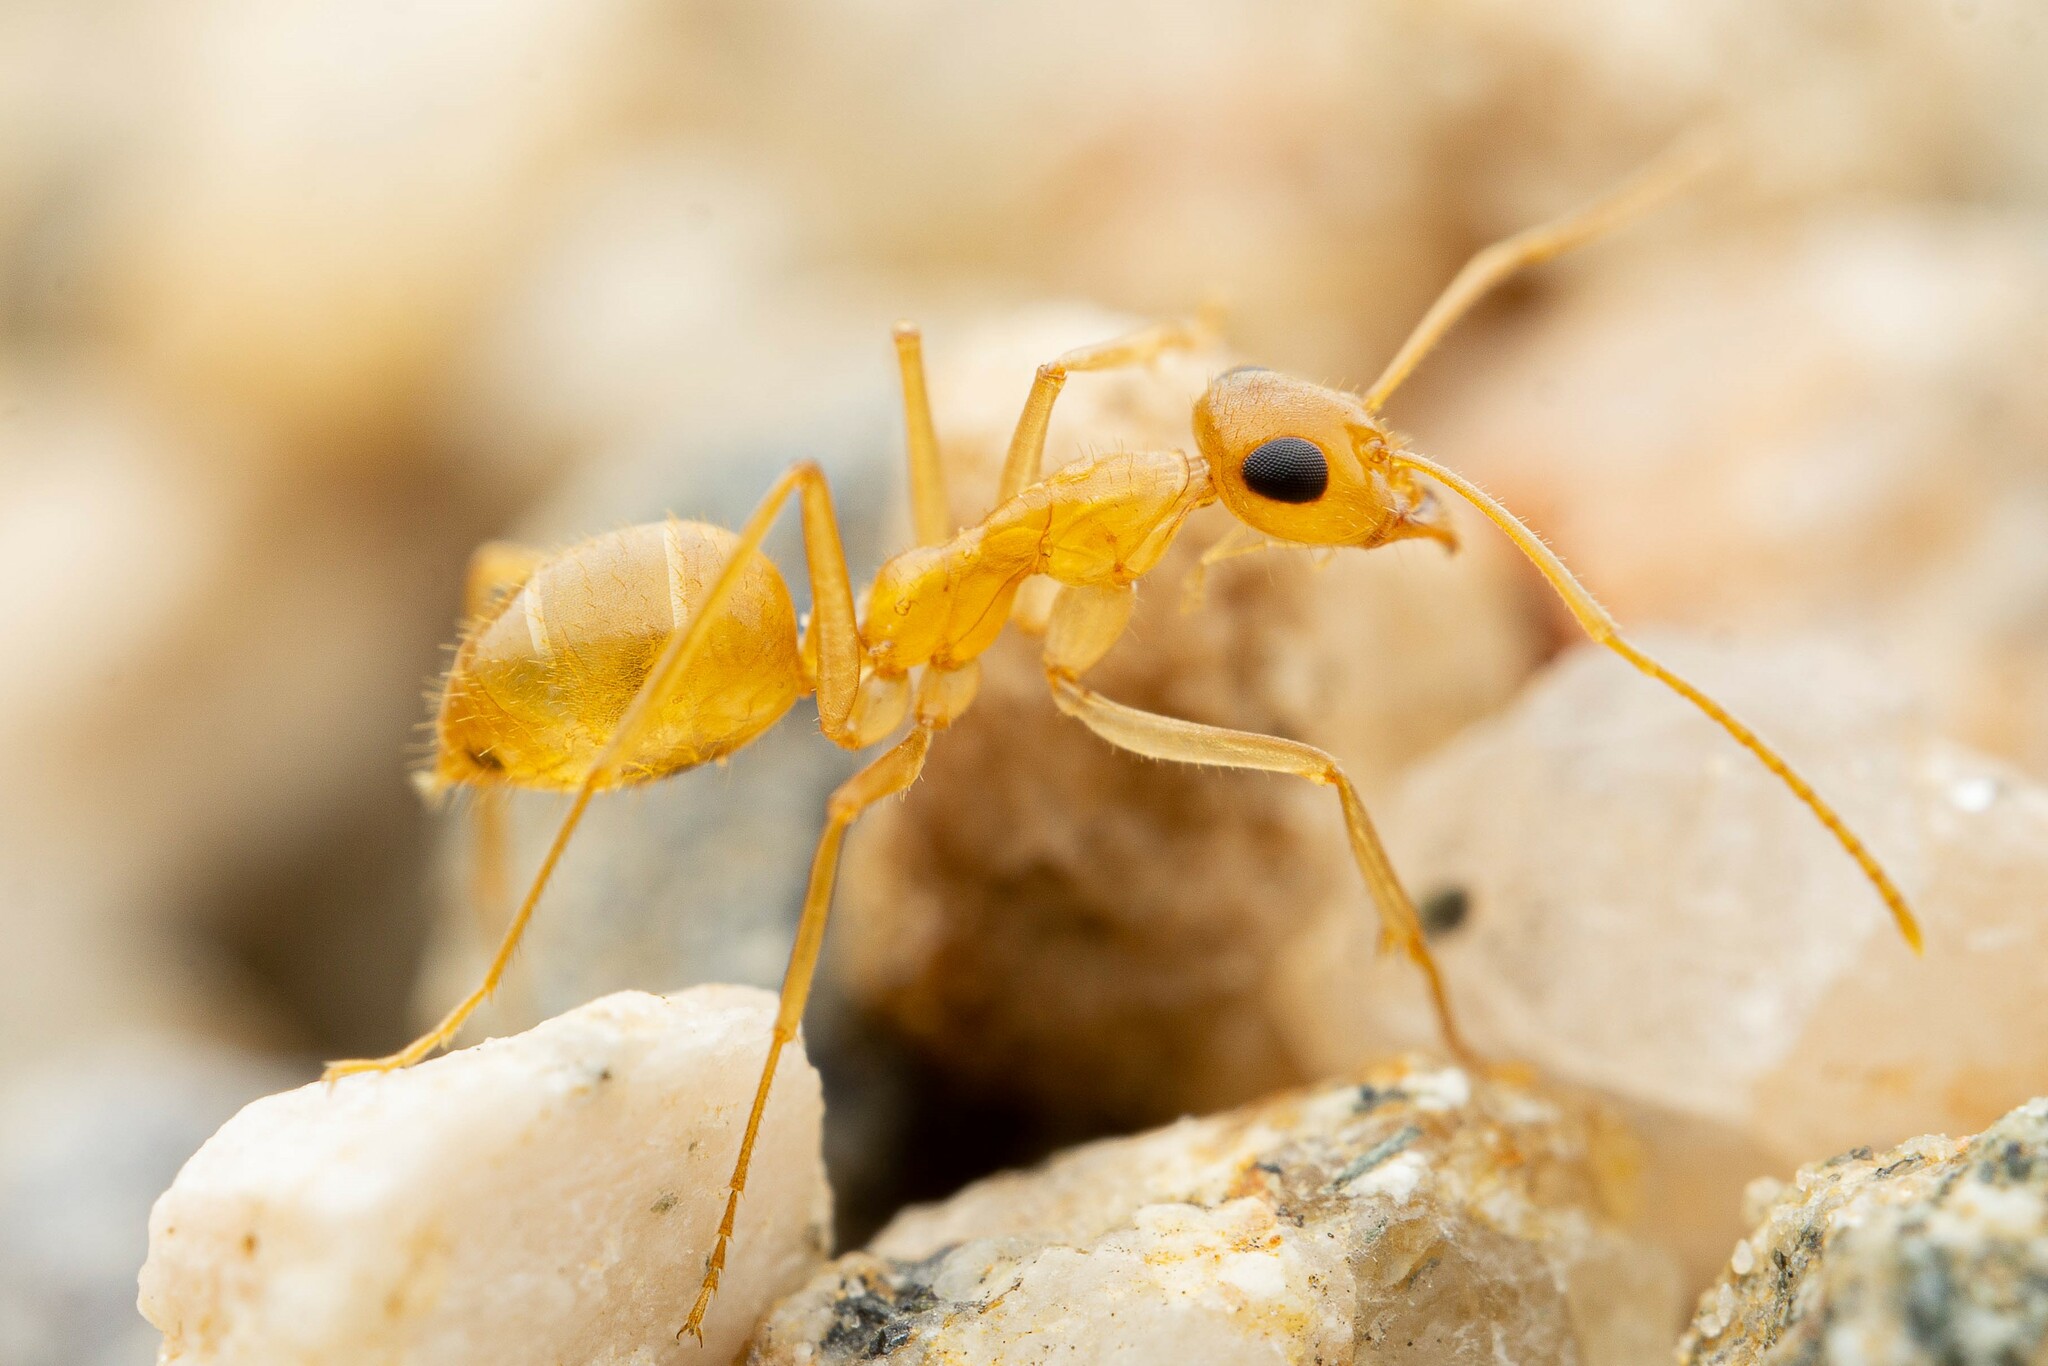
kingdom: Animalia
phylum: Arthropoda
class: Insecta
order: Hymenoptera
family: Formicidae
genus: Myrmecocystus
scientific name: Myrmecocystus navajo
